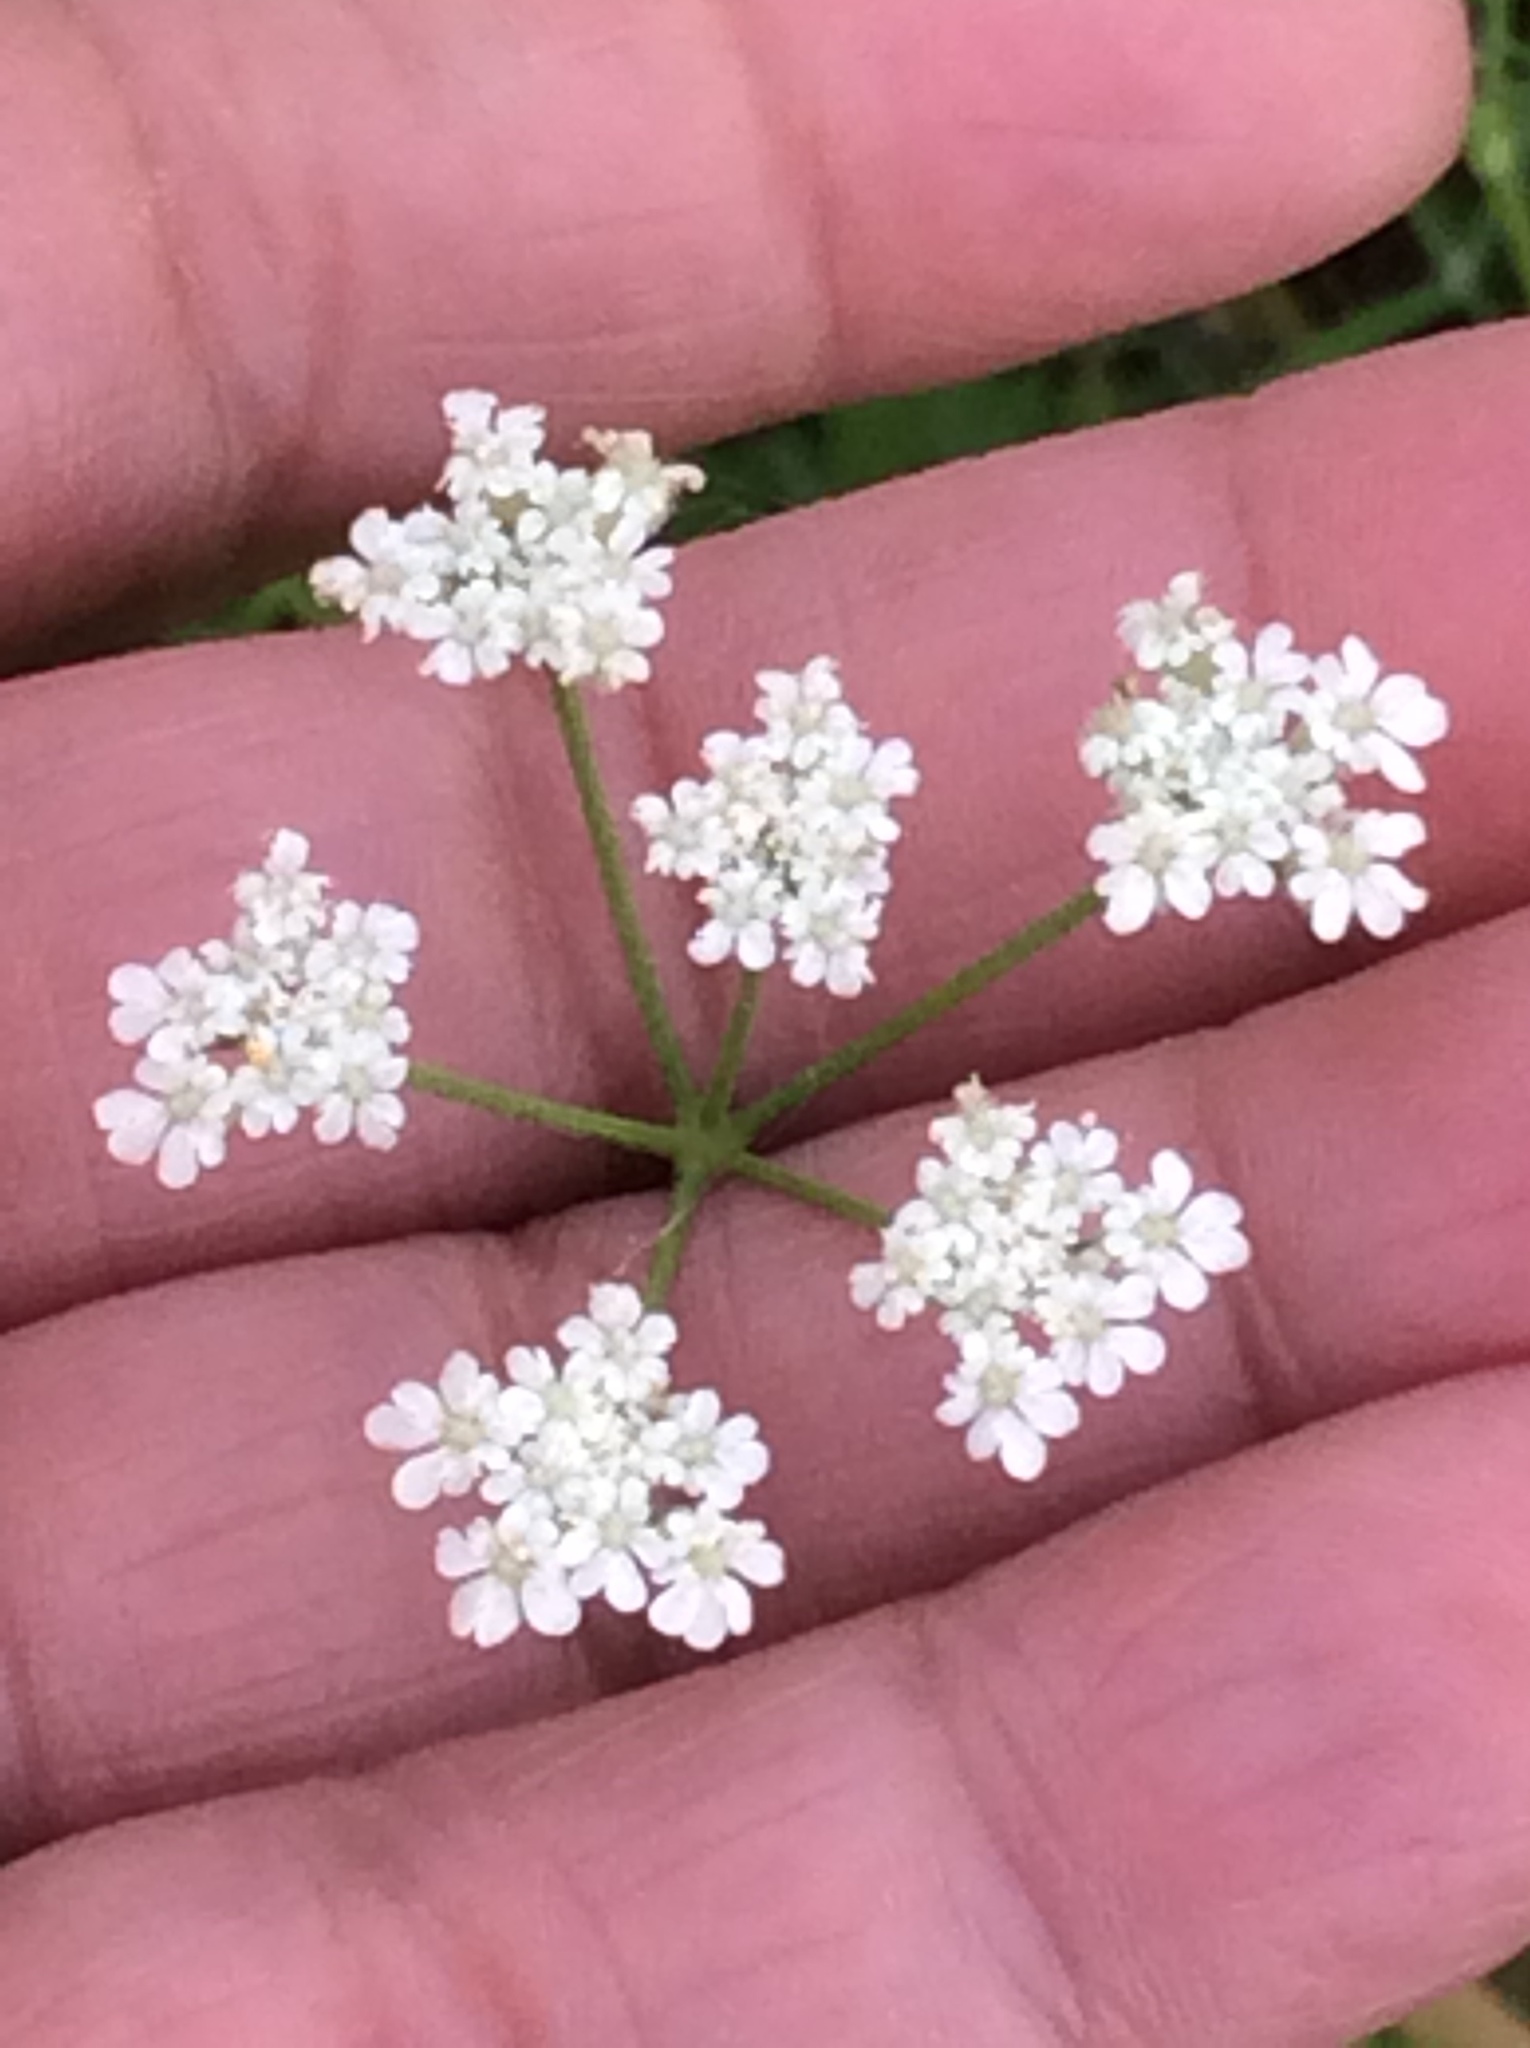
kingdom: Plantae
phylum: Tracheophyta
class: Magnoliopsida
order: Apiales
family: Apiaceae
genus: Torilis
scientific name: Torilis arvensis
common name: Spreading hedge-parsley
